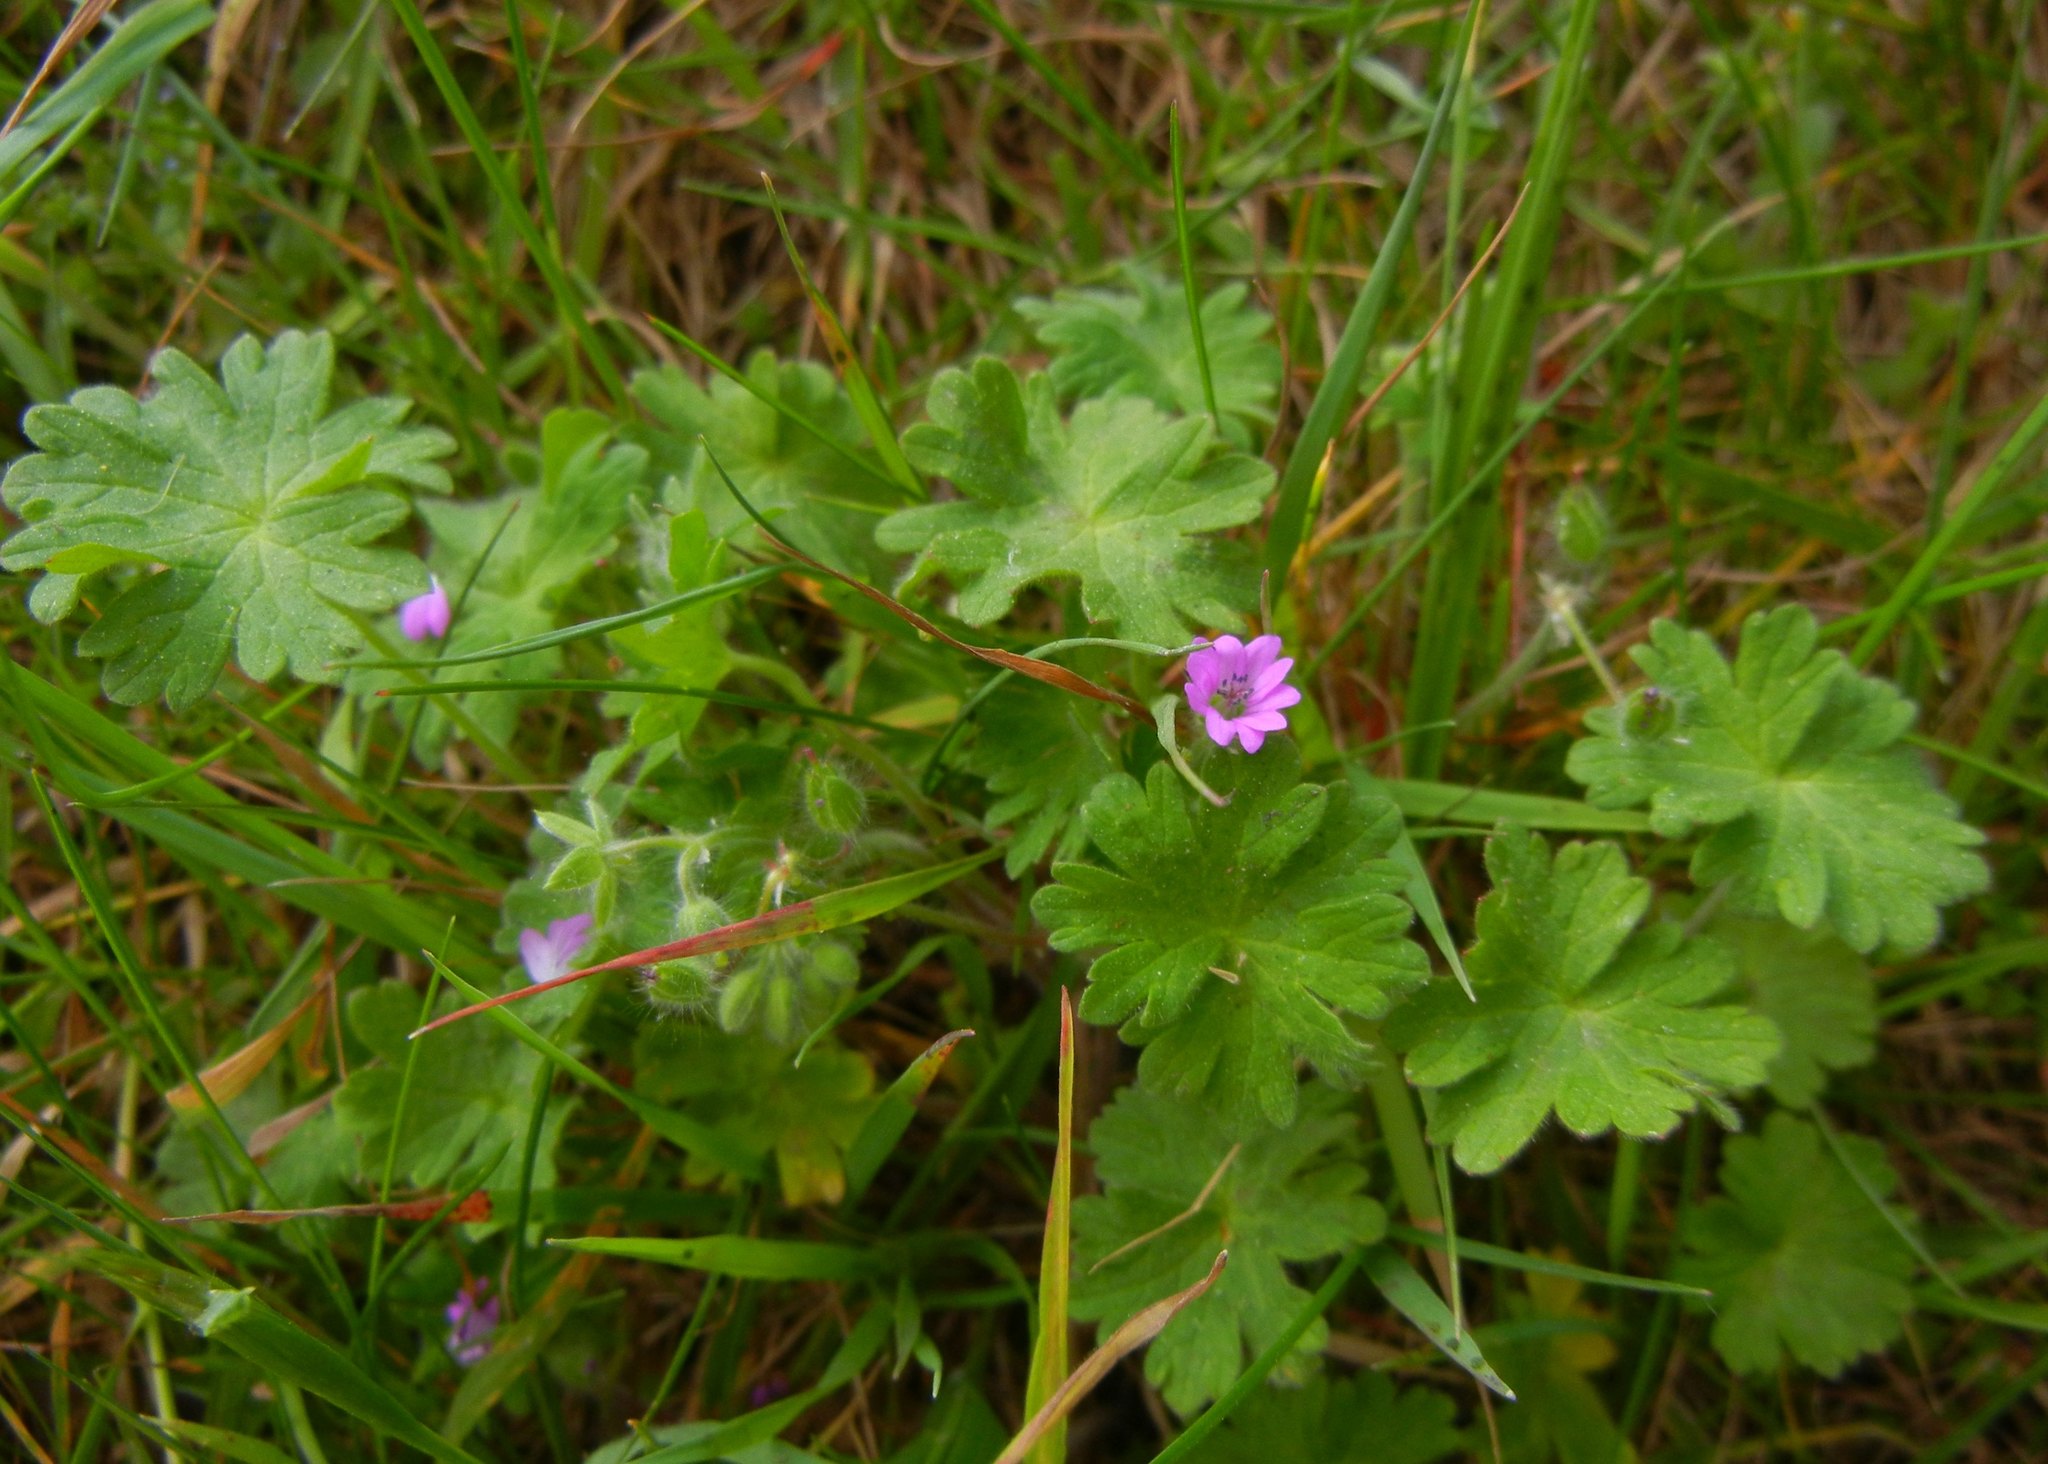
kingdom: Plantae
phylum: Tracheophyta
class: Magnoliopsida
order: Geraniales
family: Geraniaceae
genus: Geranium
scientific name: Geranium molle
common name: Dove's-foot crane's-bill
